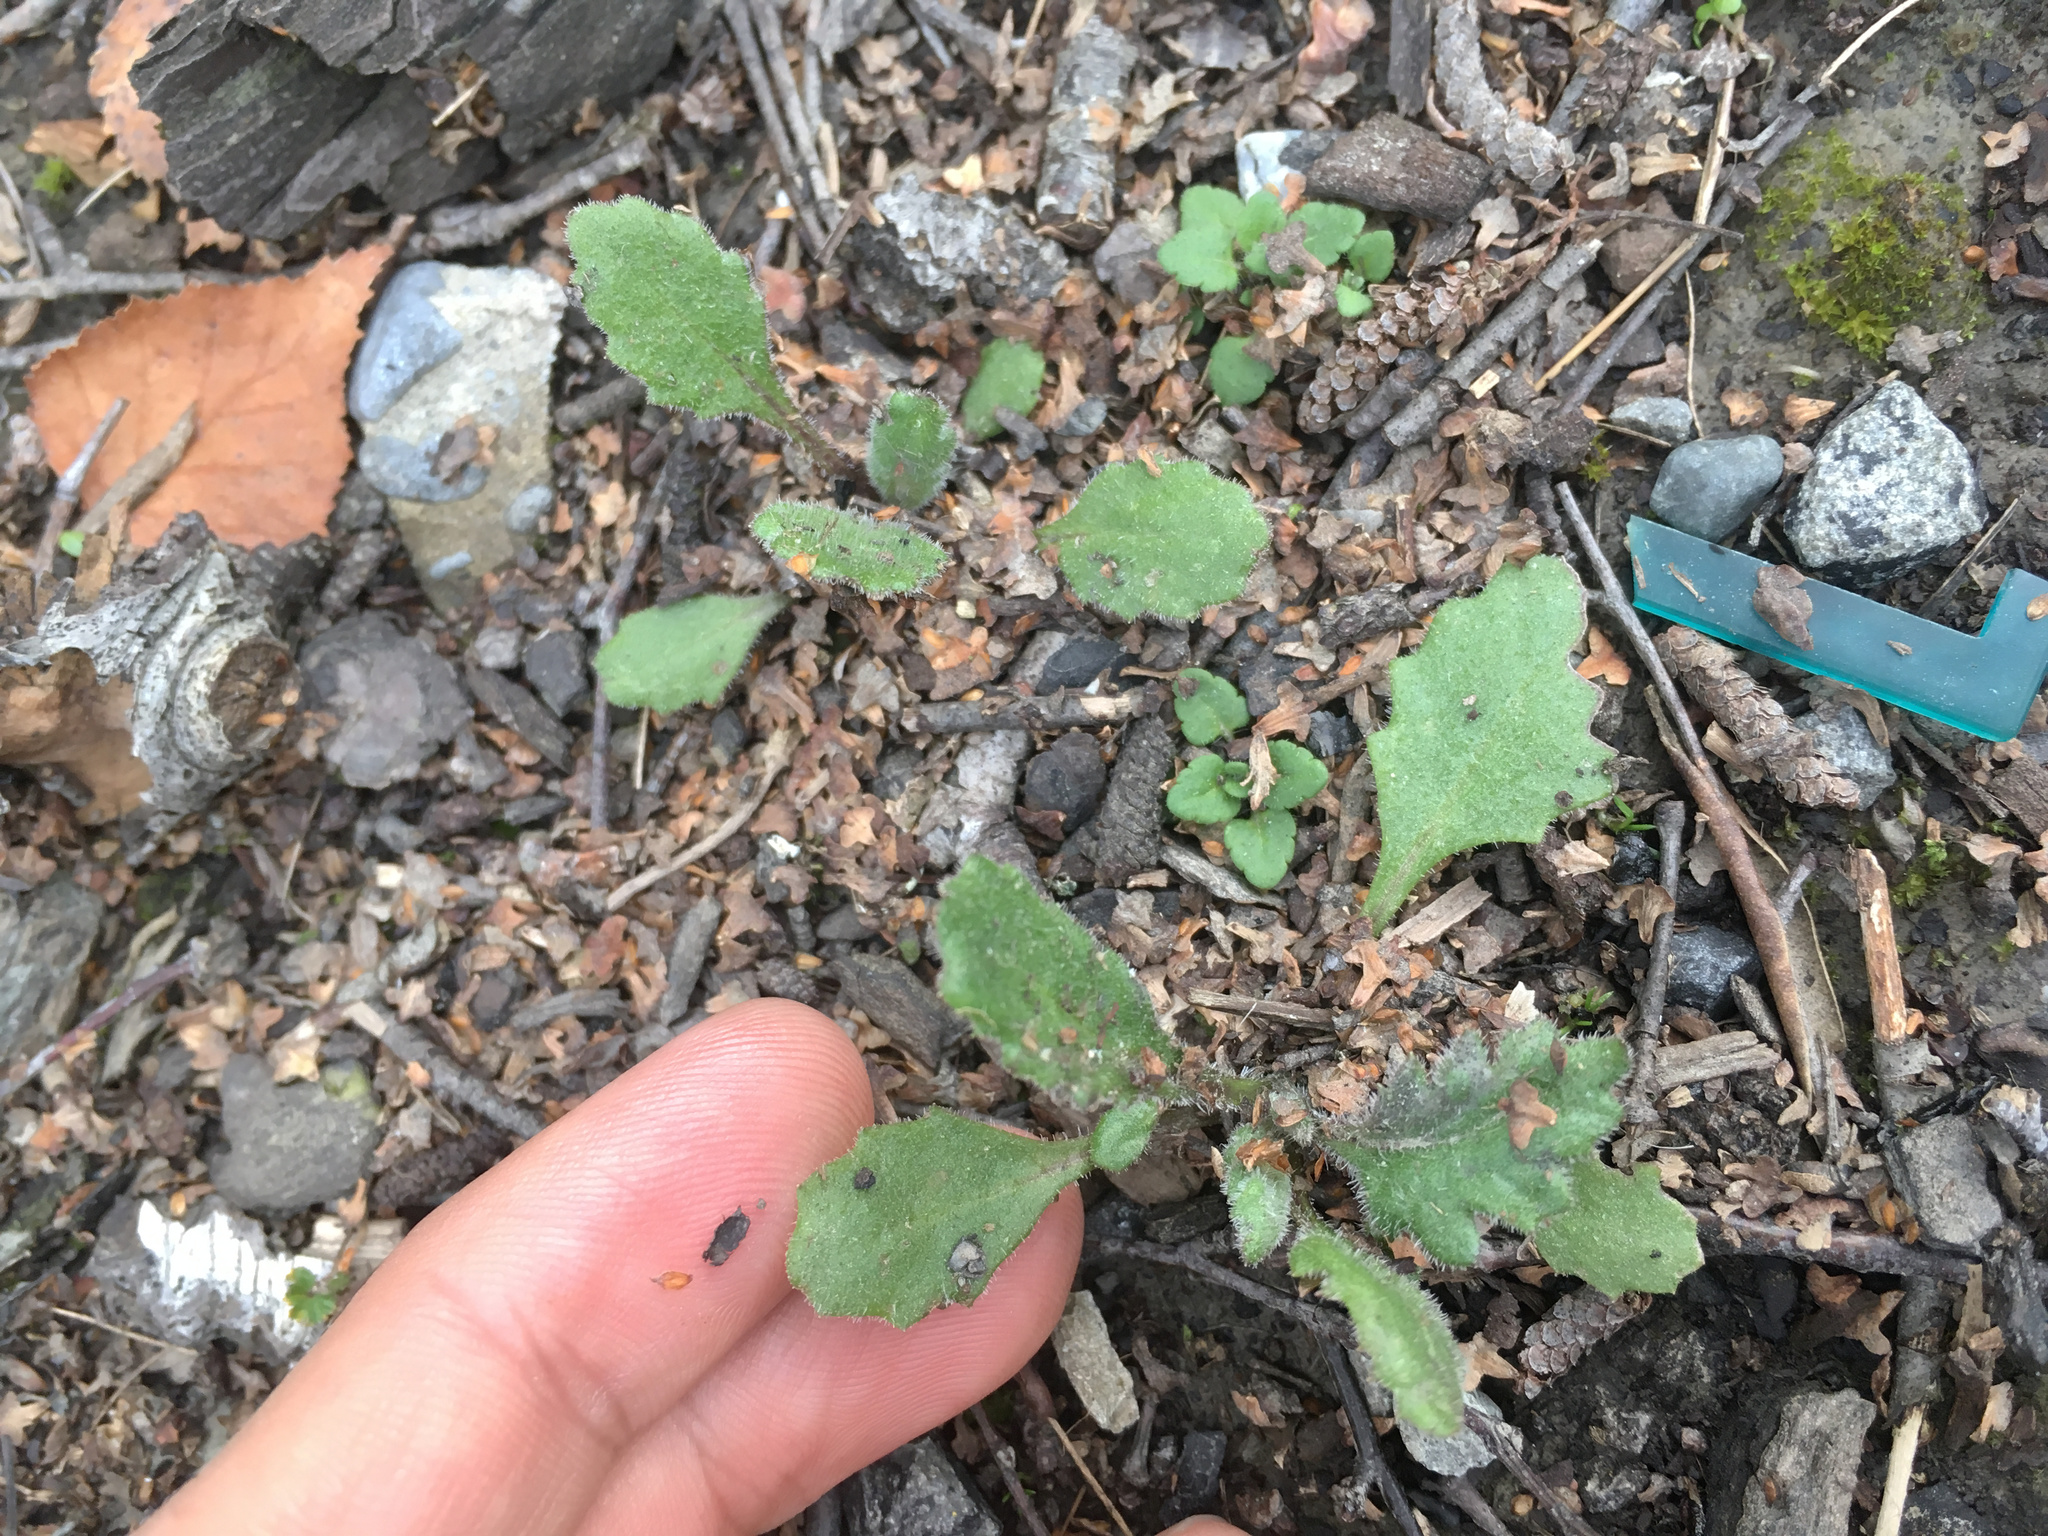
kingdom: Plantae
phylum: Tracheophyta
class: Magnoliopsida
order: Asterales
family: Asteraceae
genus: Senecio
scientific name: Senecio glomeratus
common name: Cutleaf burnweed
